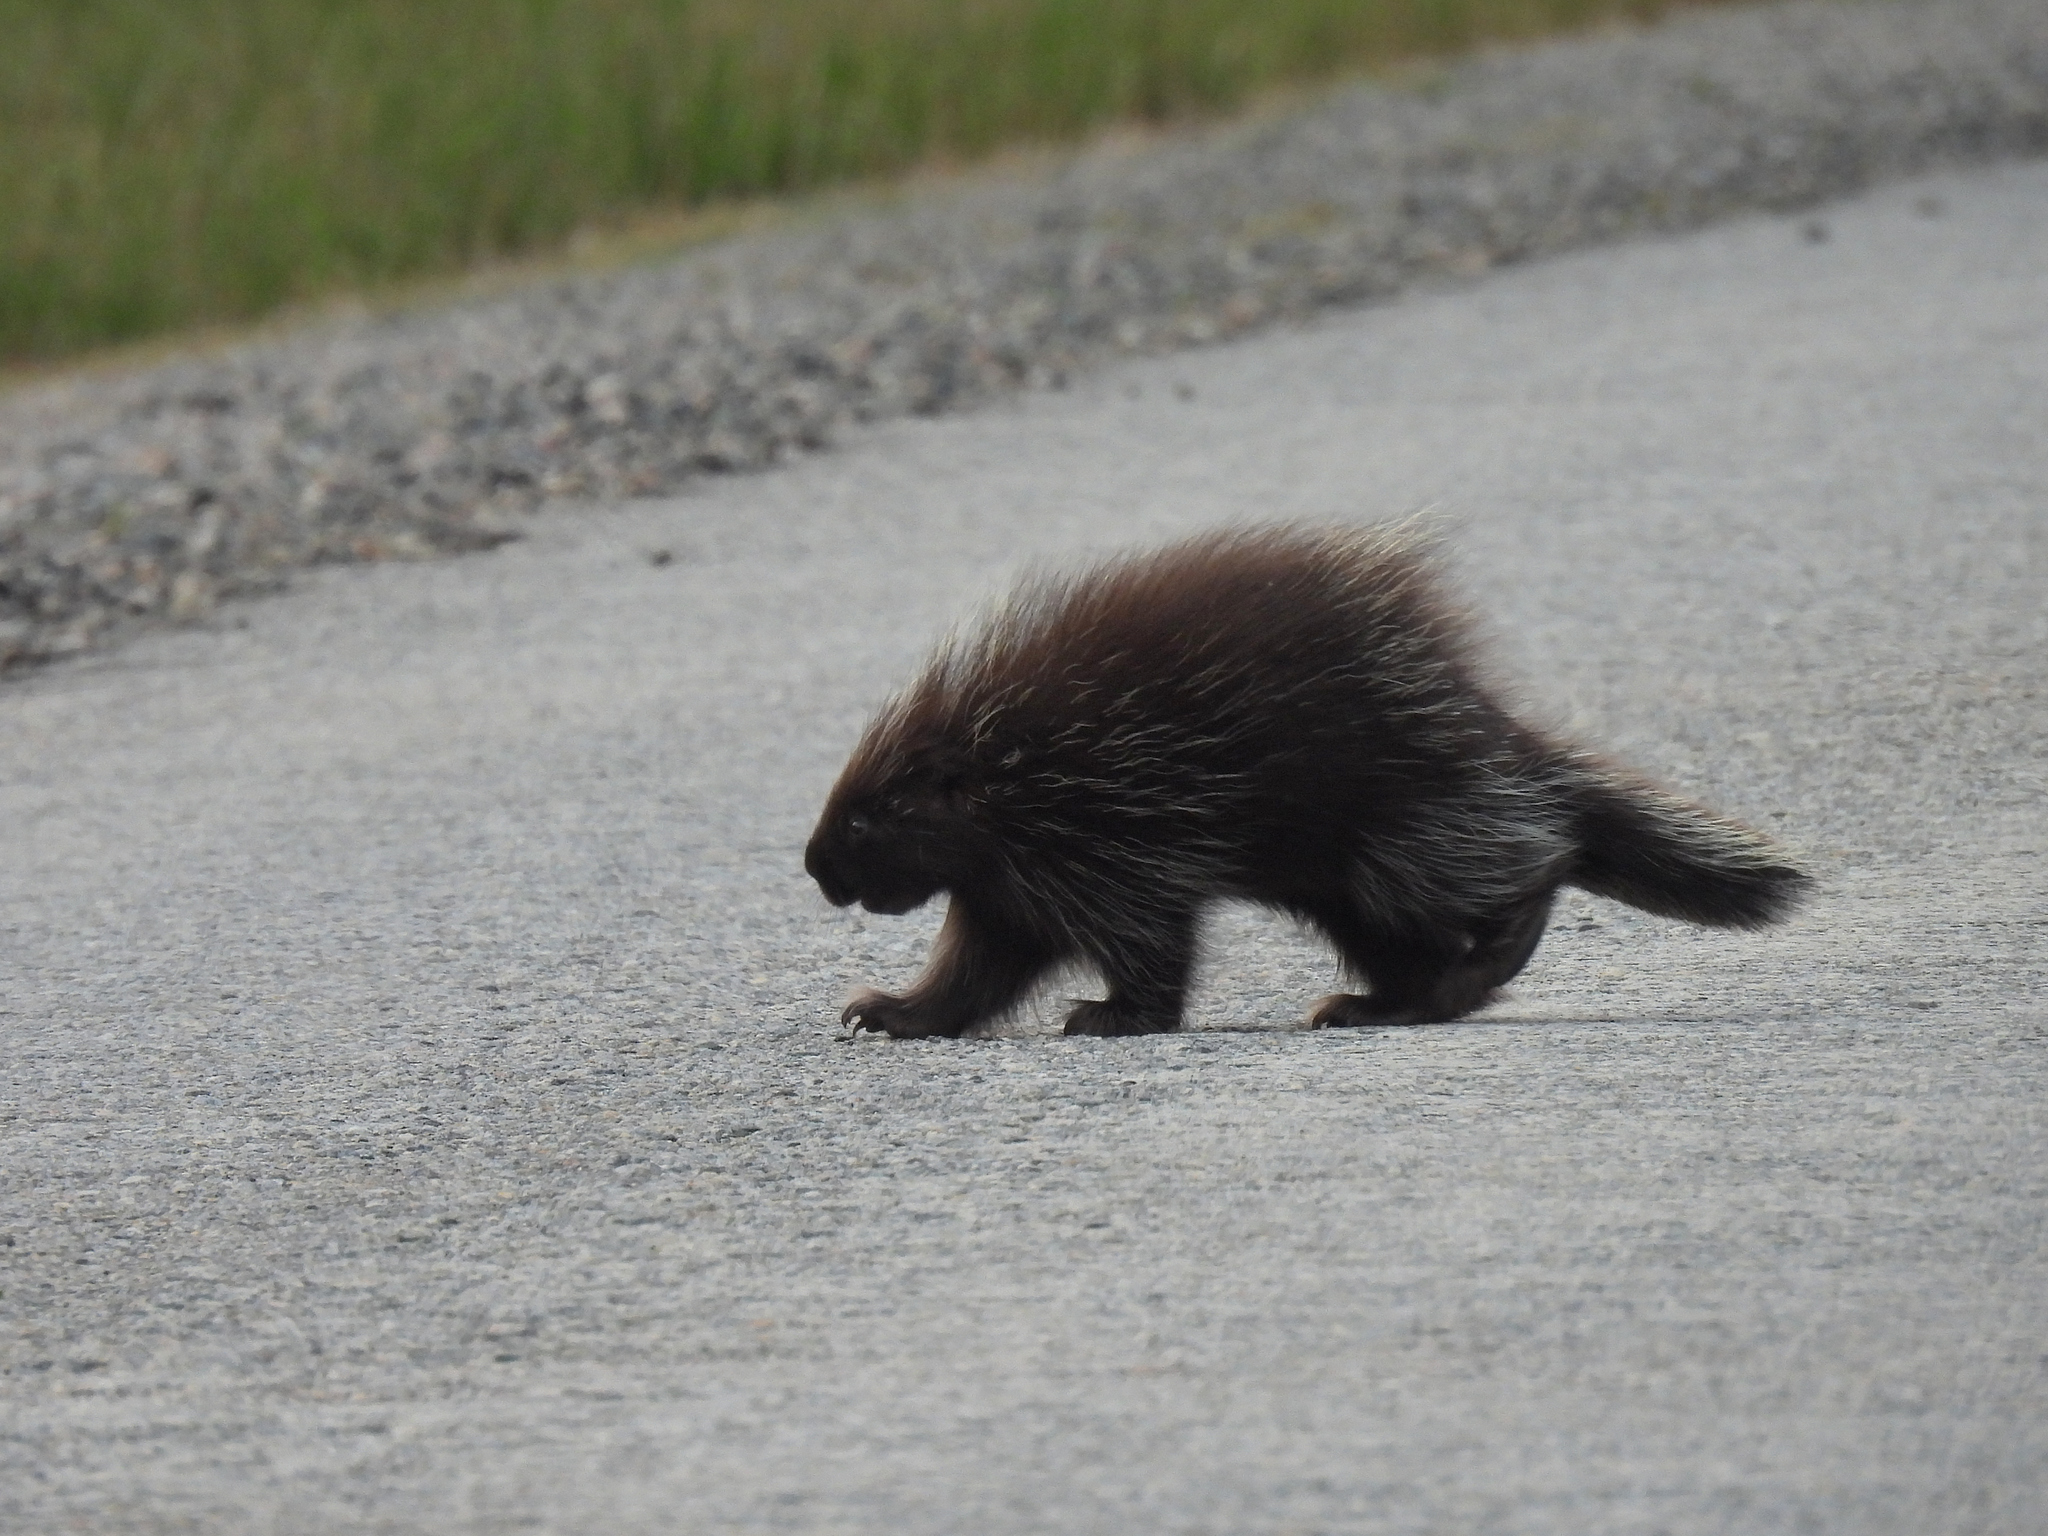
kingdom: Animalia
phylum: Chordata
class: Mammalia
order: Rodentia
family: Erethizontidae
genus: Erethizon
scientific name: Erethizon dorsatus
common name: North american porcupine
